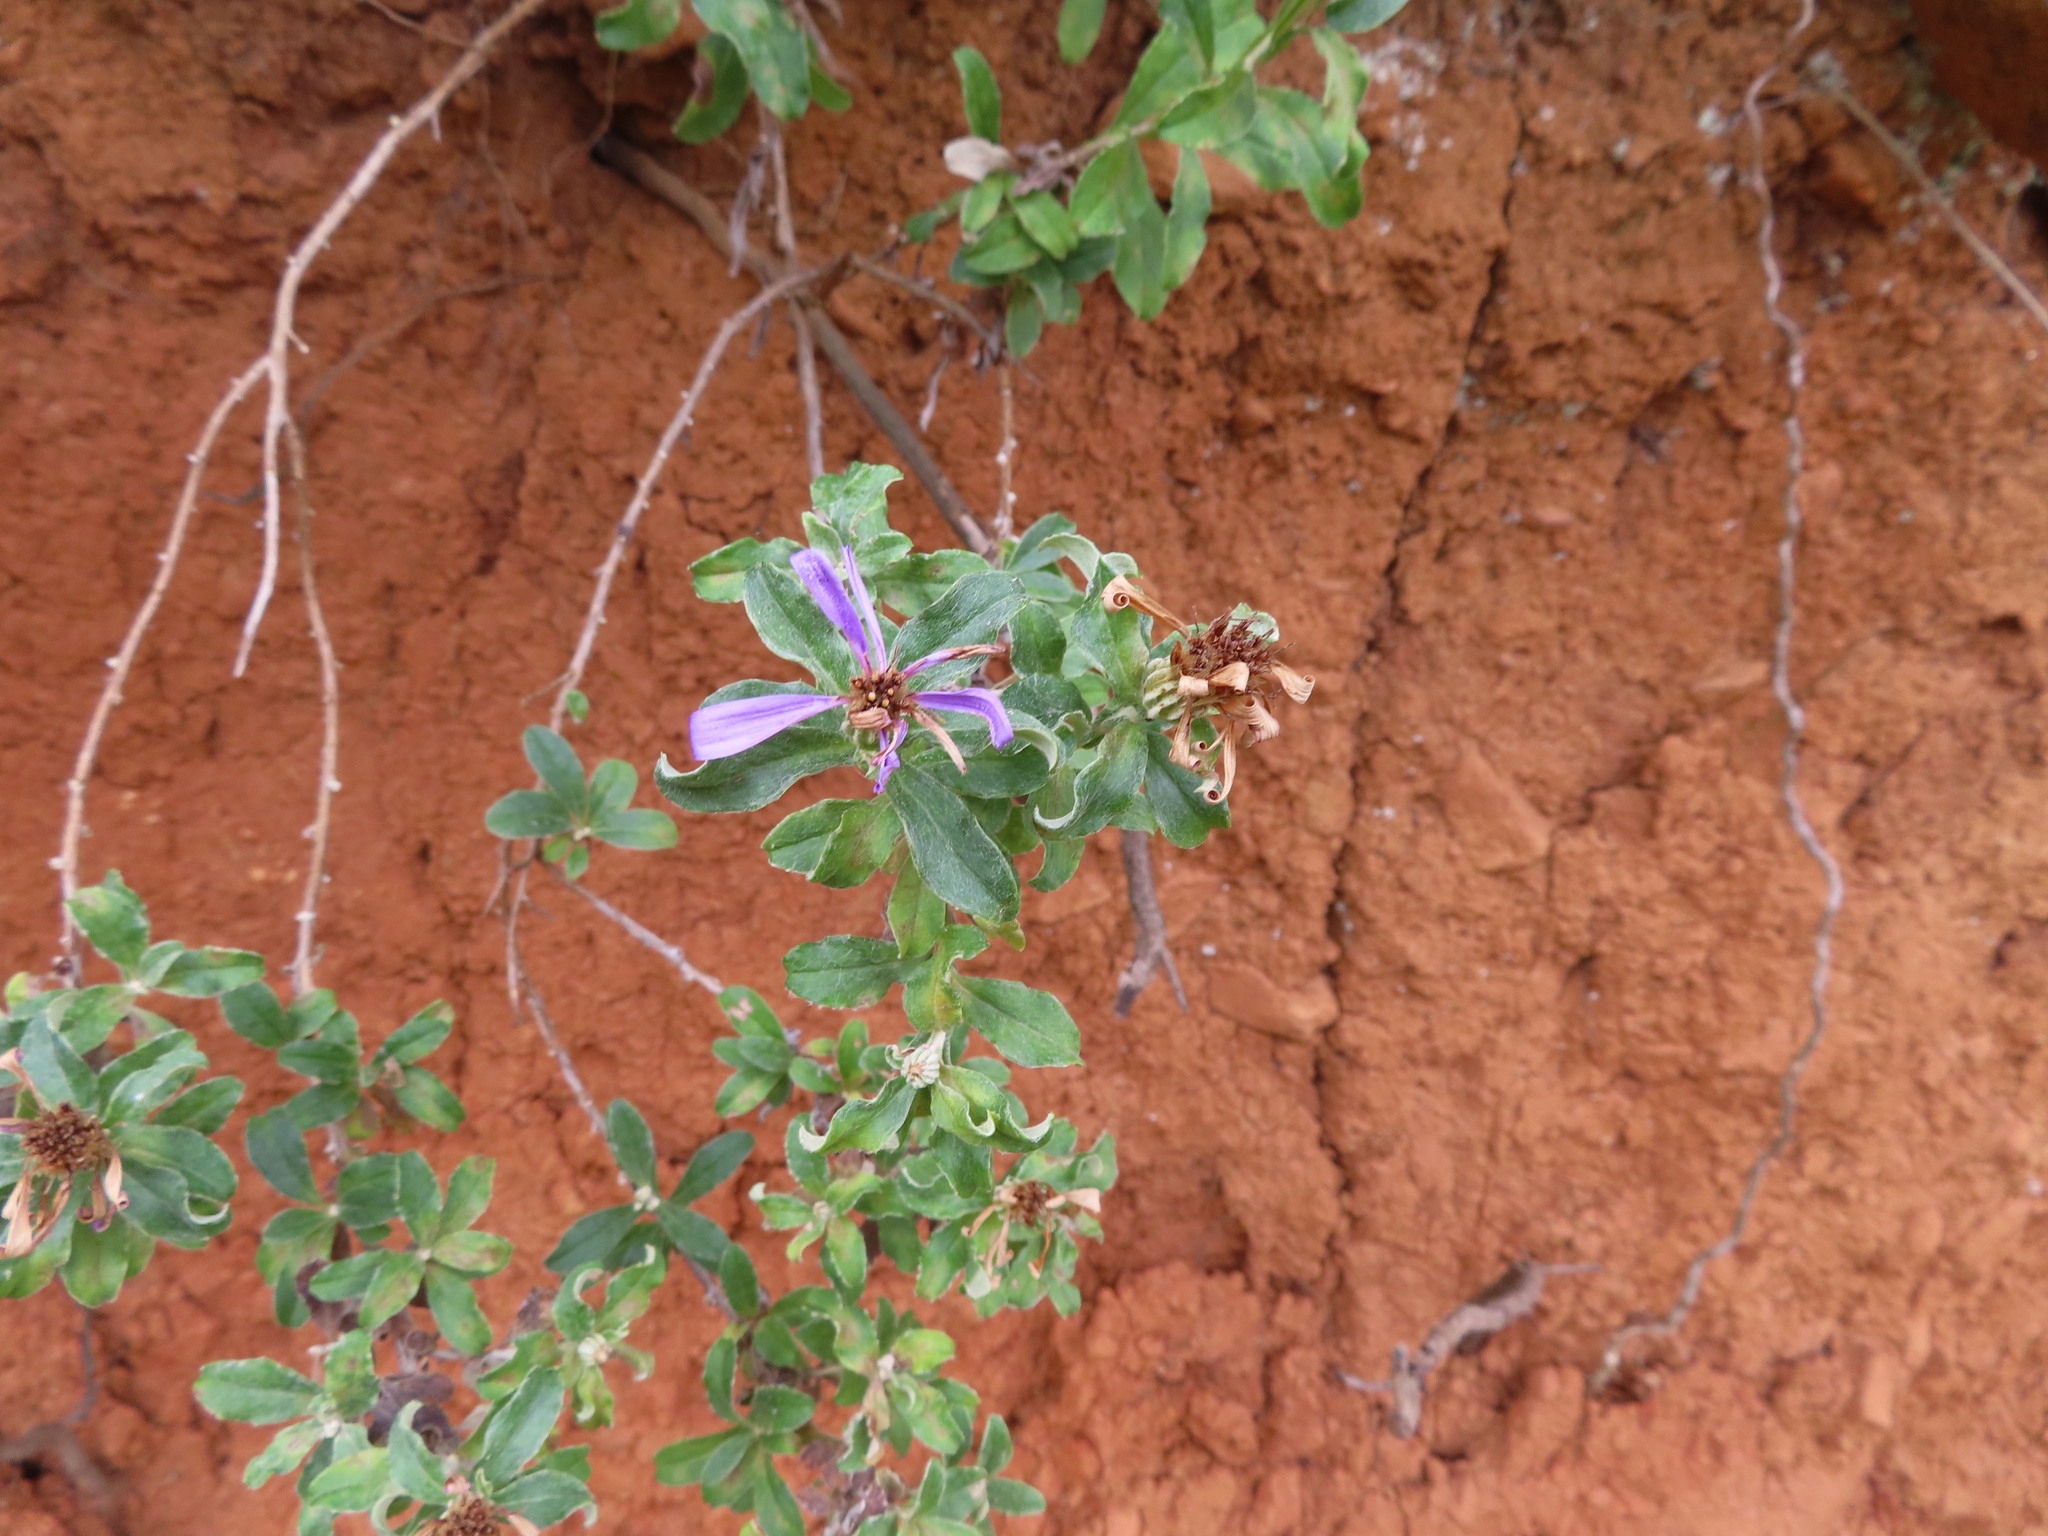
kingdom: Plantae
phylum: Tracheophyta
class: Magnoliopsida
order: Asterales
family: Asteraceae
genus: Printzia
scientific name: Printzia polifolia
